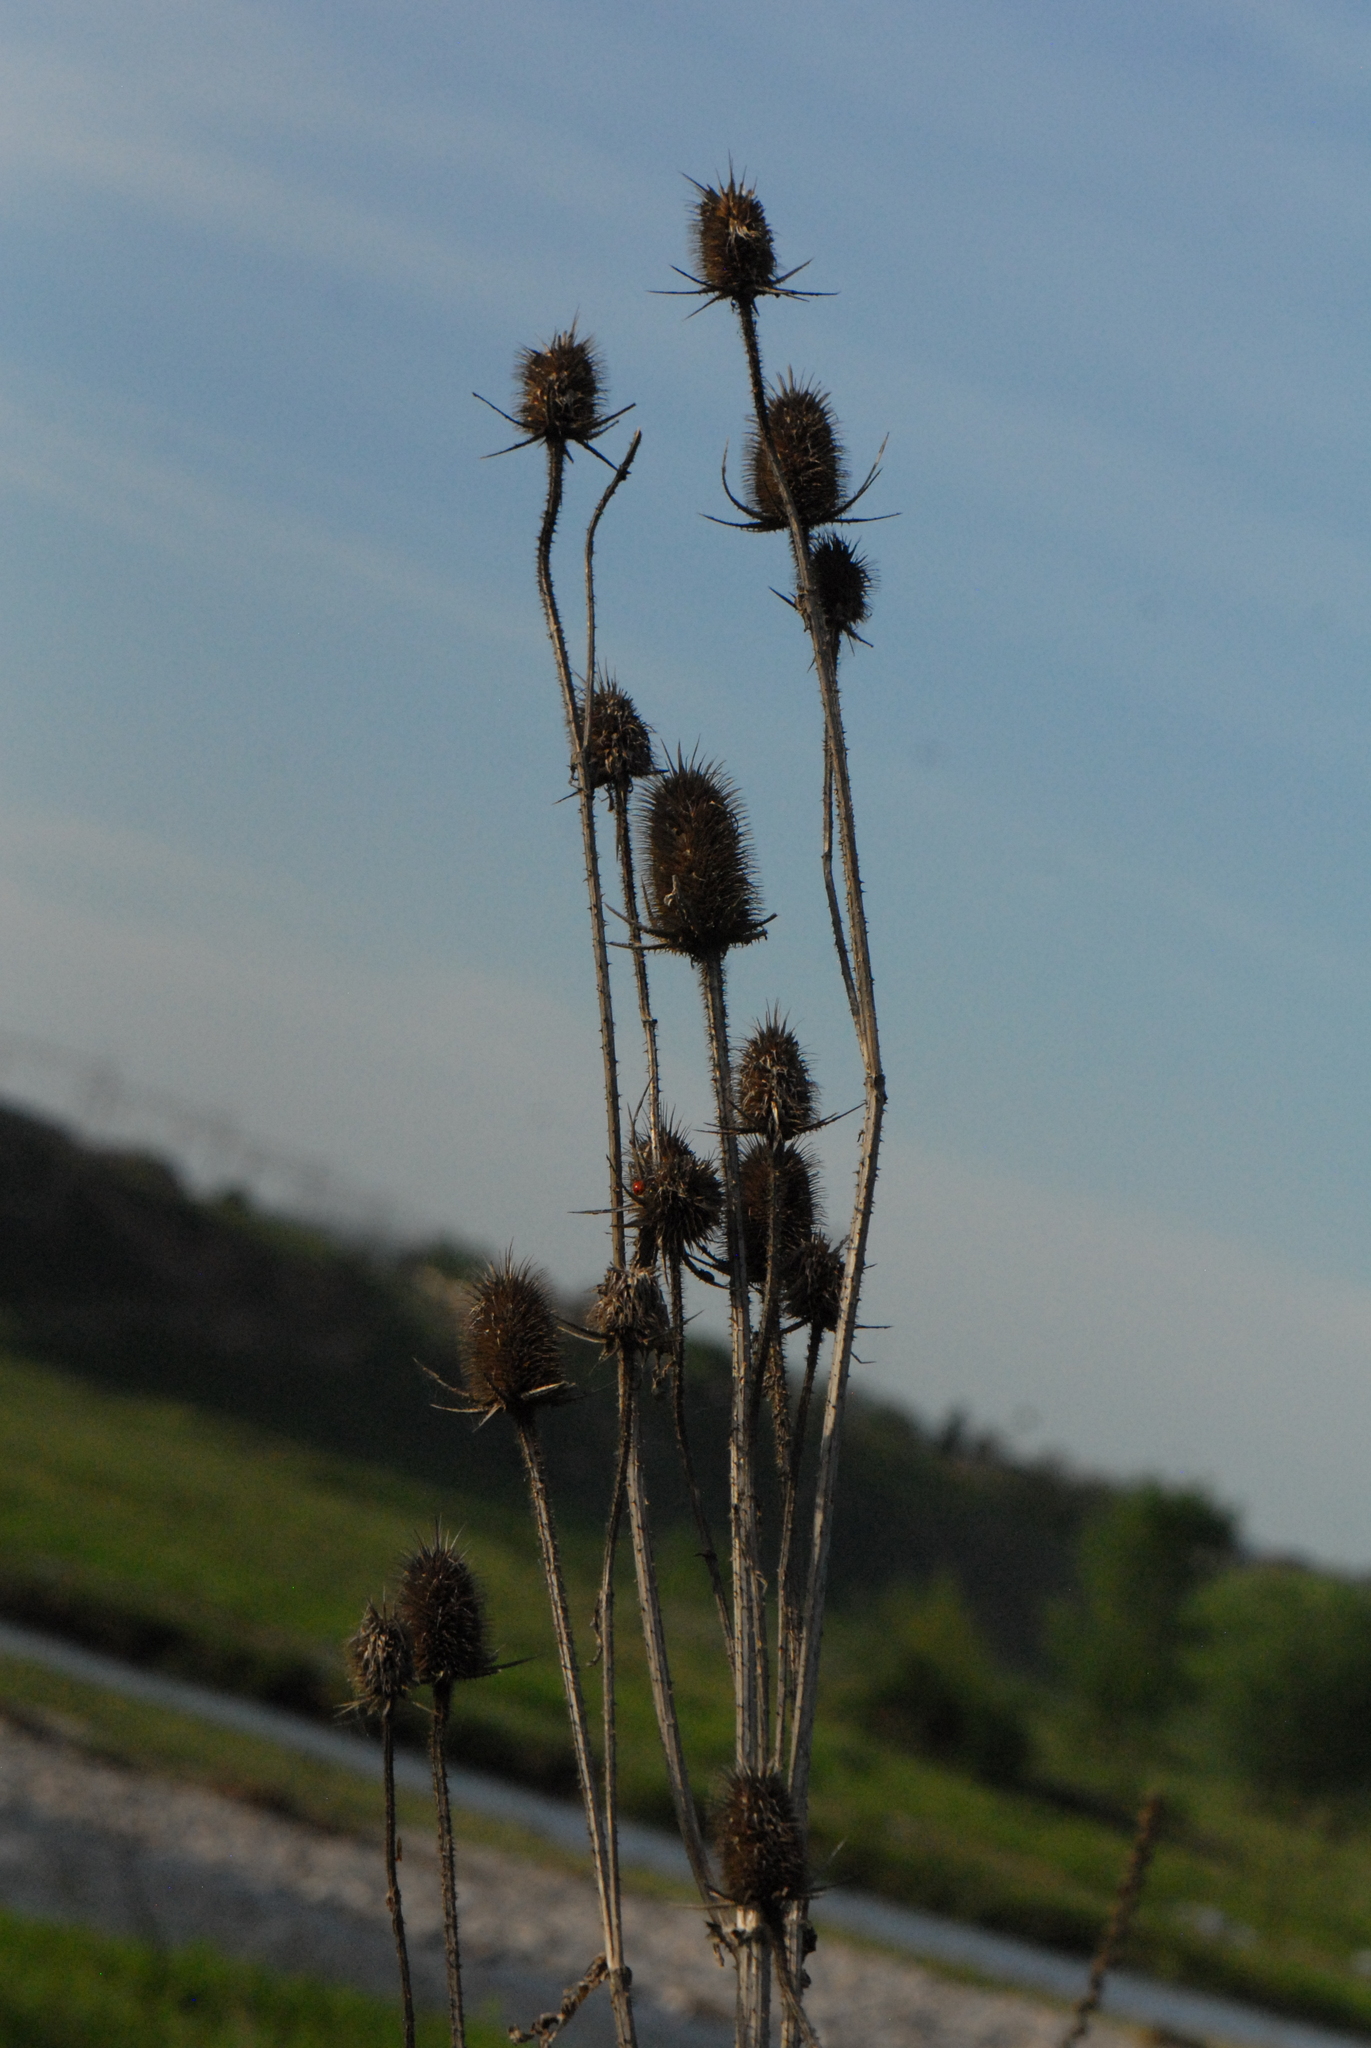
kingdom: Plantae
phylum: Tracheophyta
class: Magnoliopsida
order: Dipsacales
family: Caprifoliaceae
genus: Dipsacus
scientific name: Dipsacus laciniatus
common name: Cut-leaved teasel
